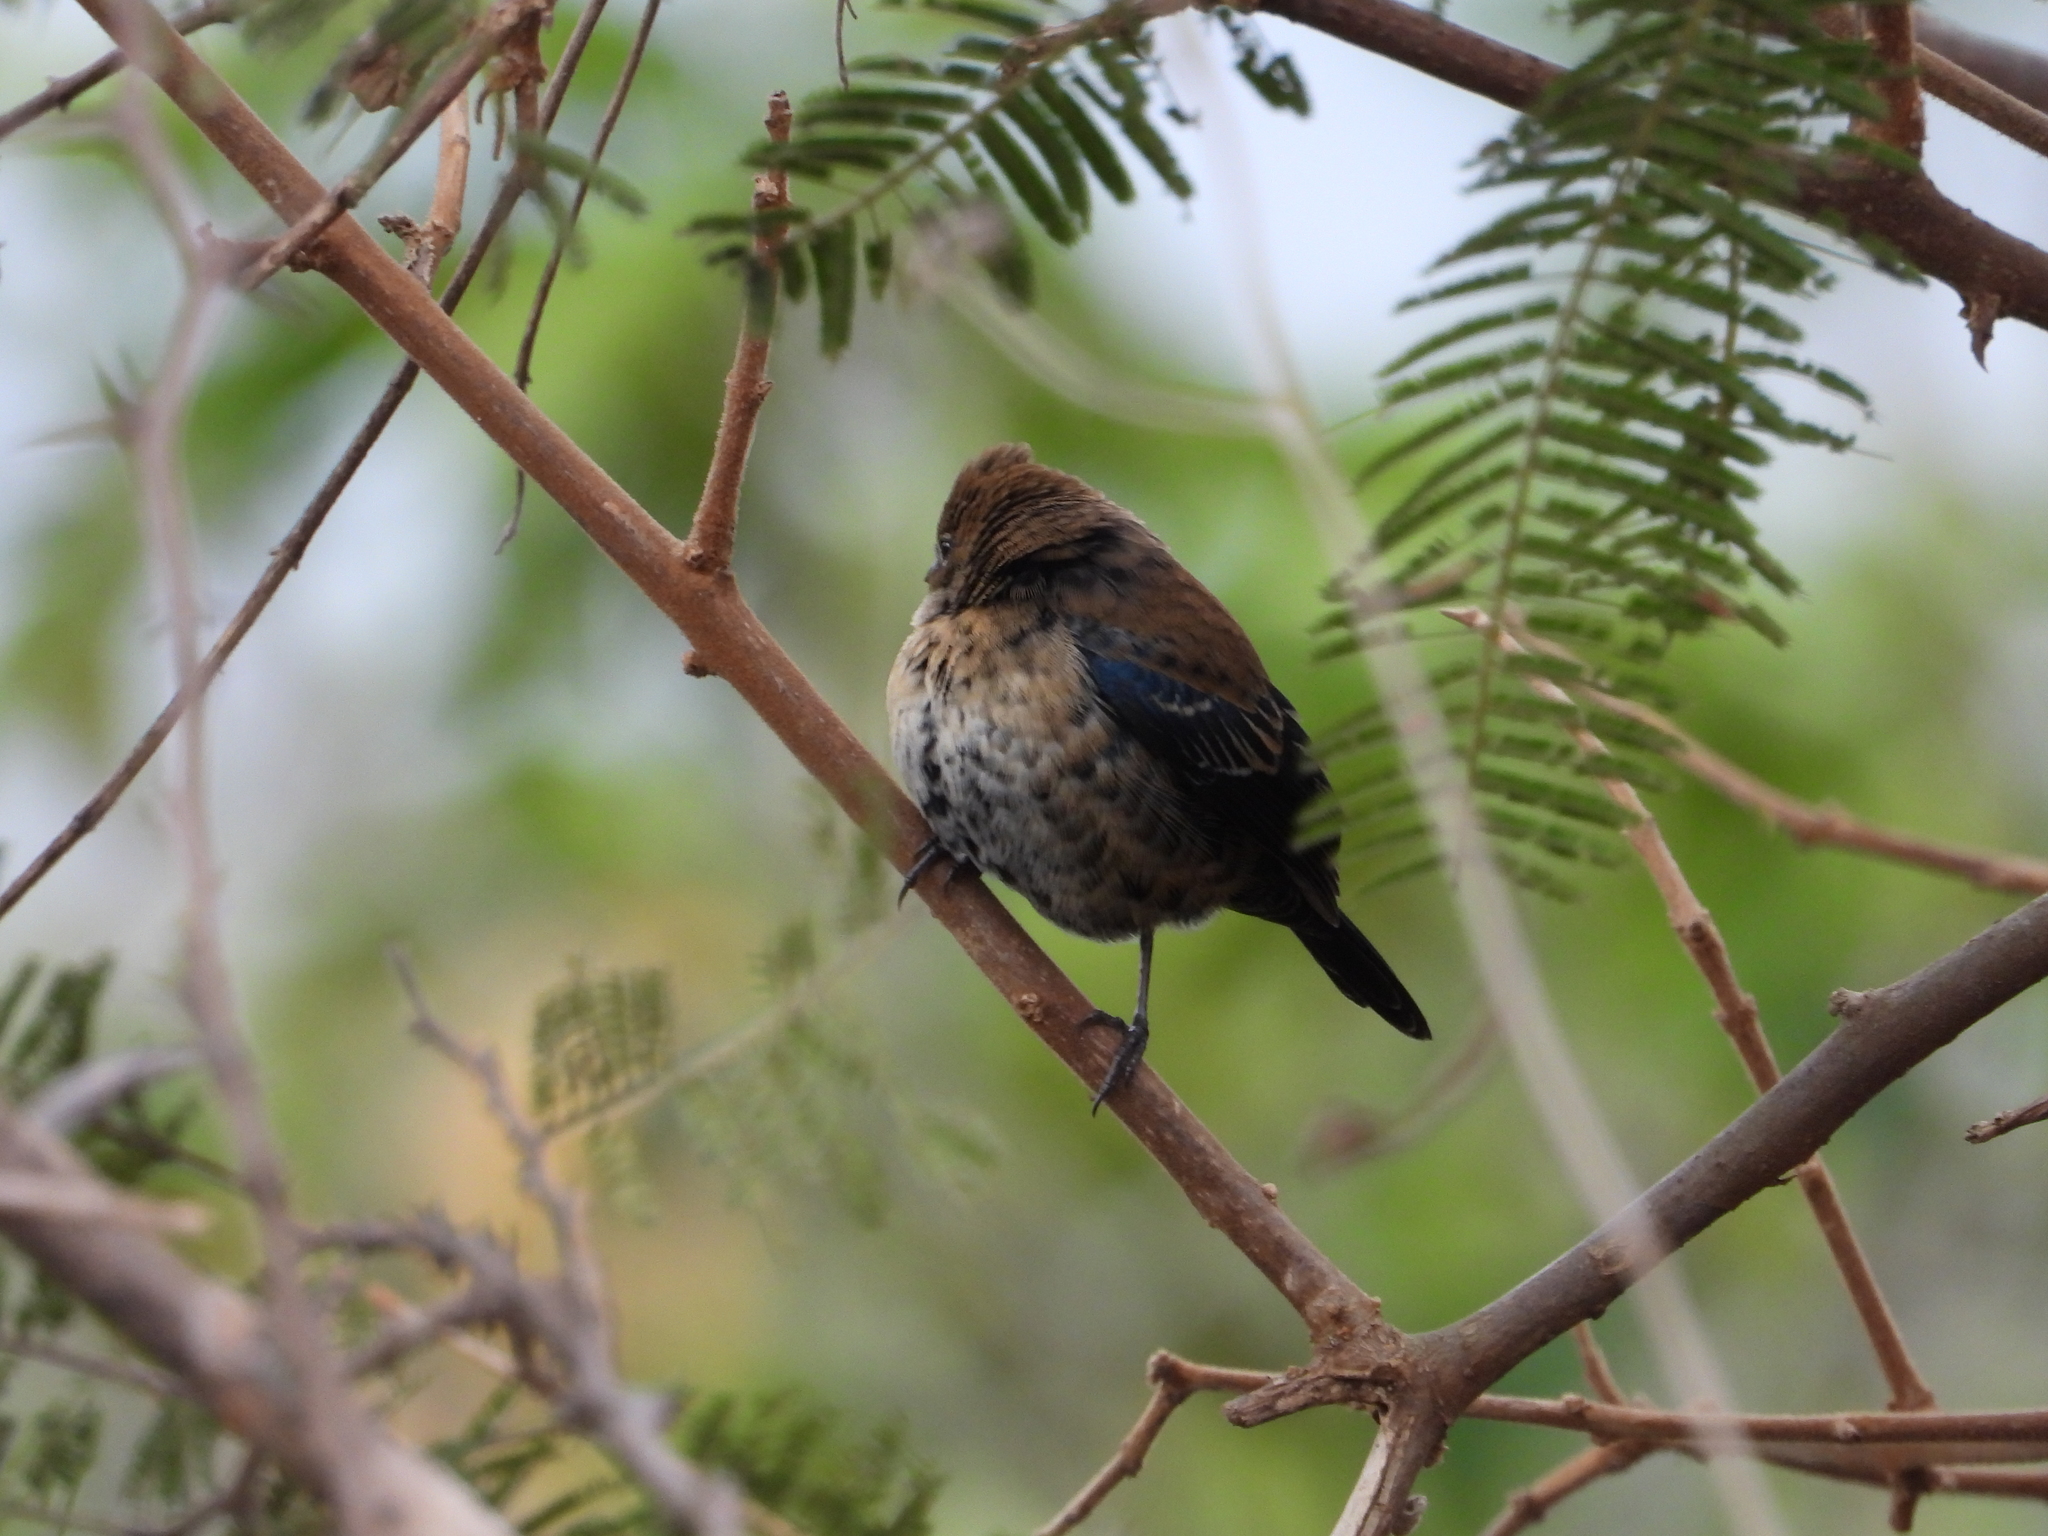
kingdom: Animalia
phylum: Chordata
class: Aves
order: Passeriformes
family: Thraupidae
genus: Volatinia
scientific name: Volatinia jacarina
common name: Blue-black grassquit
